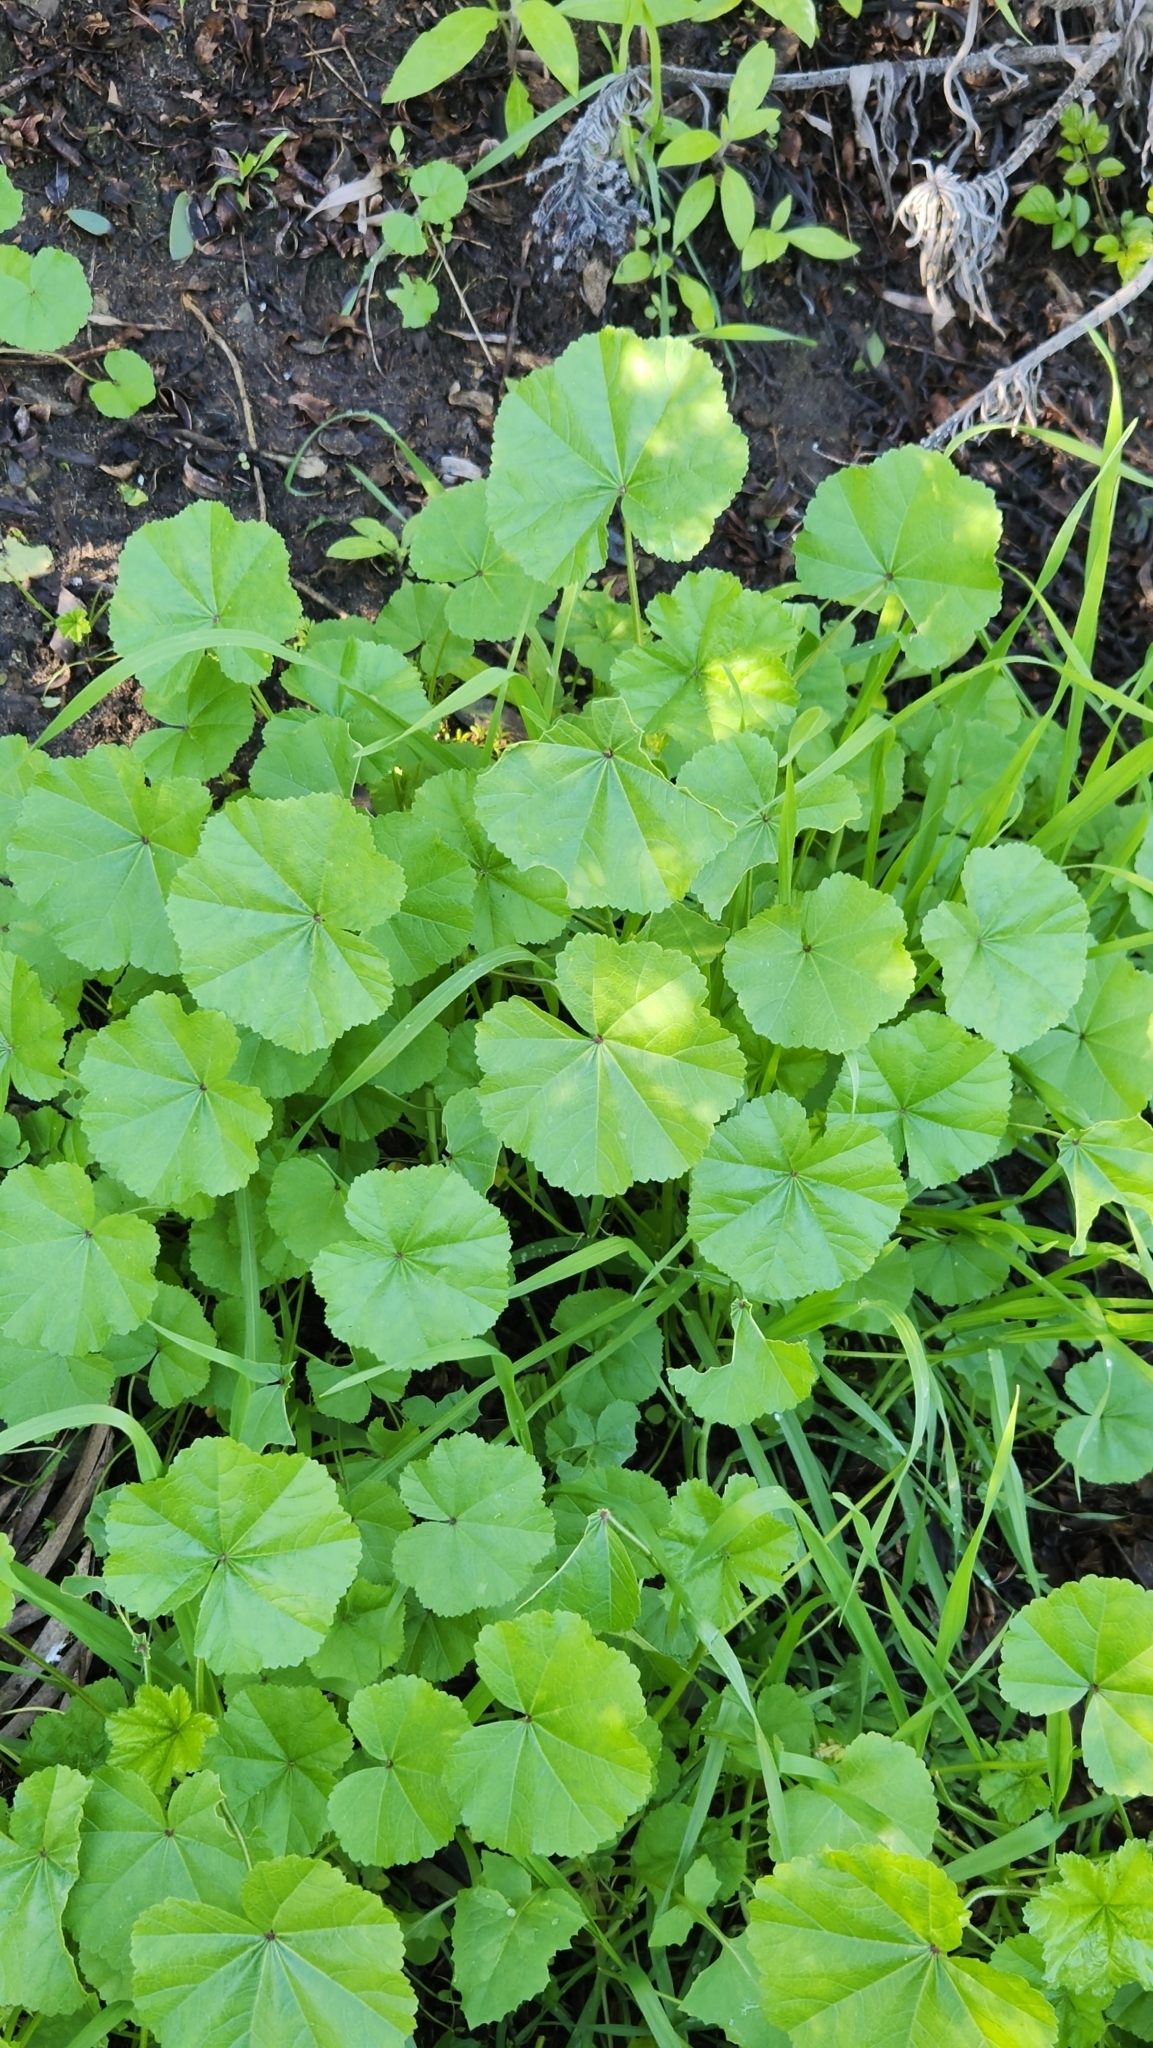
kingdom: Plantae
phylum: Tracheophyta
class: Magnoliopsida
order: Malvales
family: Malvaceae
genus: Malva
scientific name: Malva
